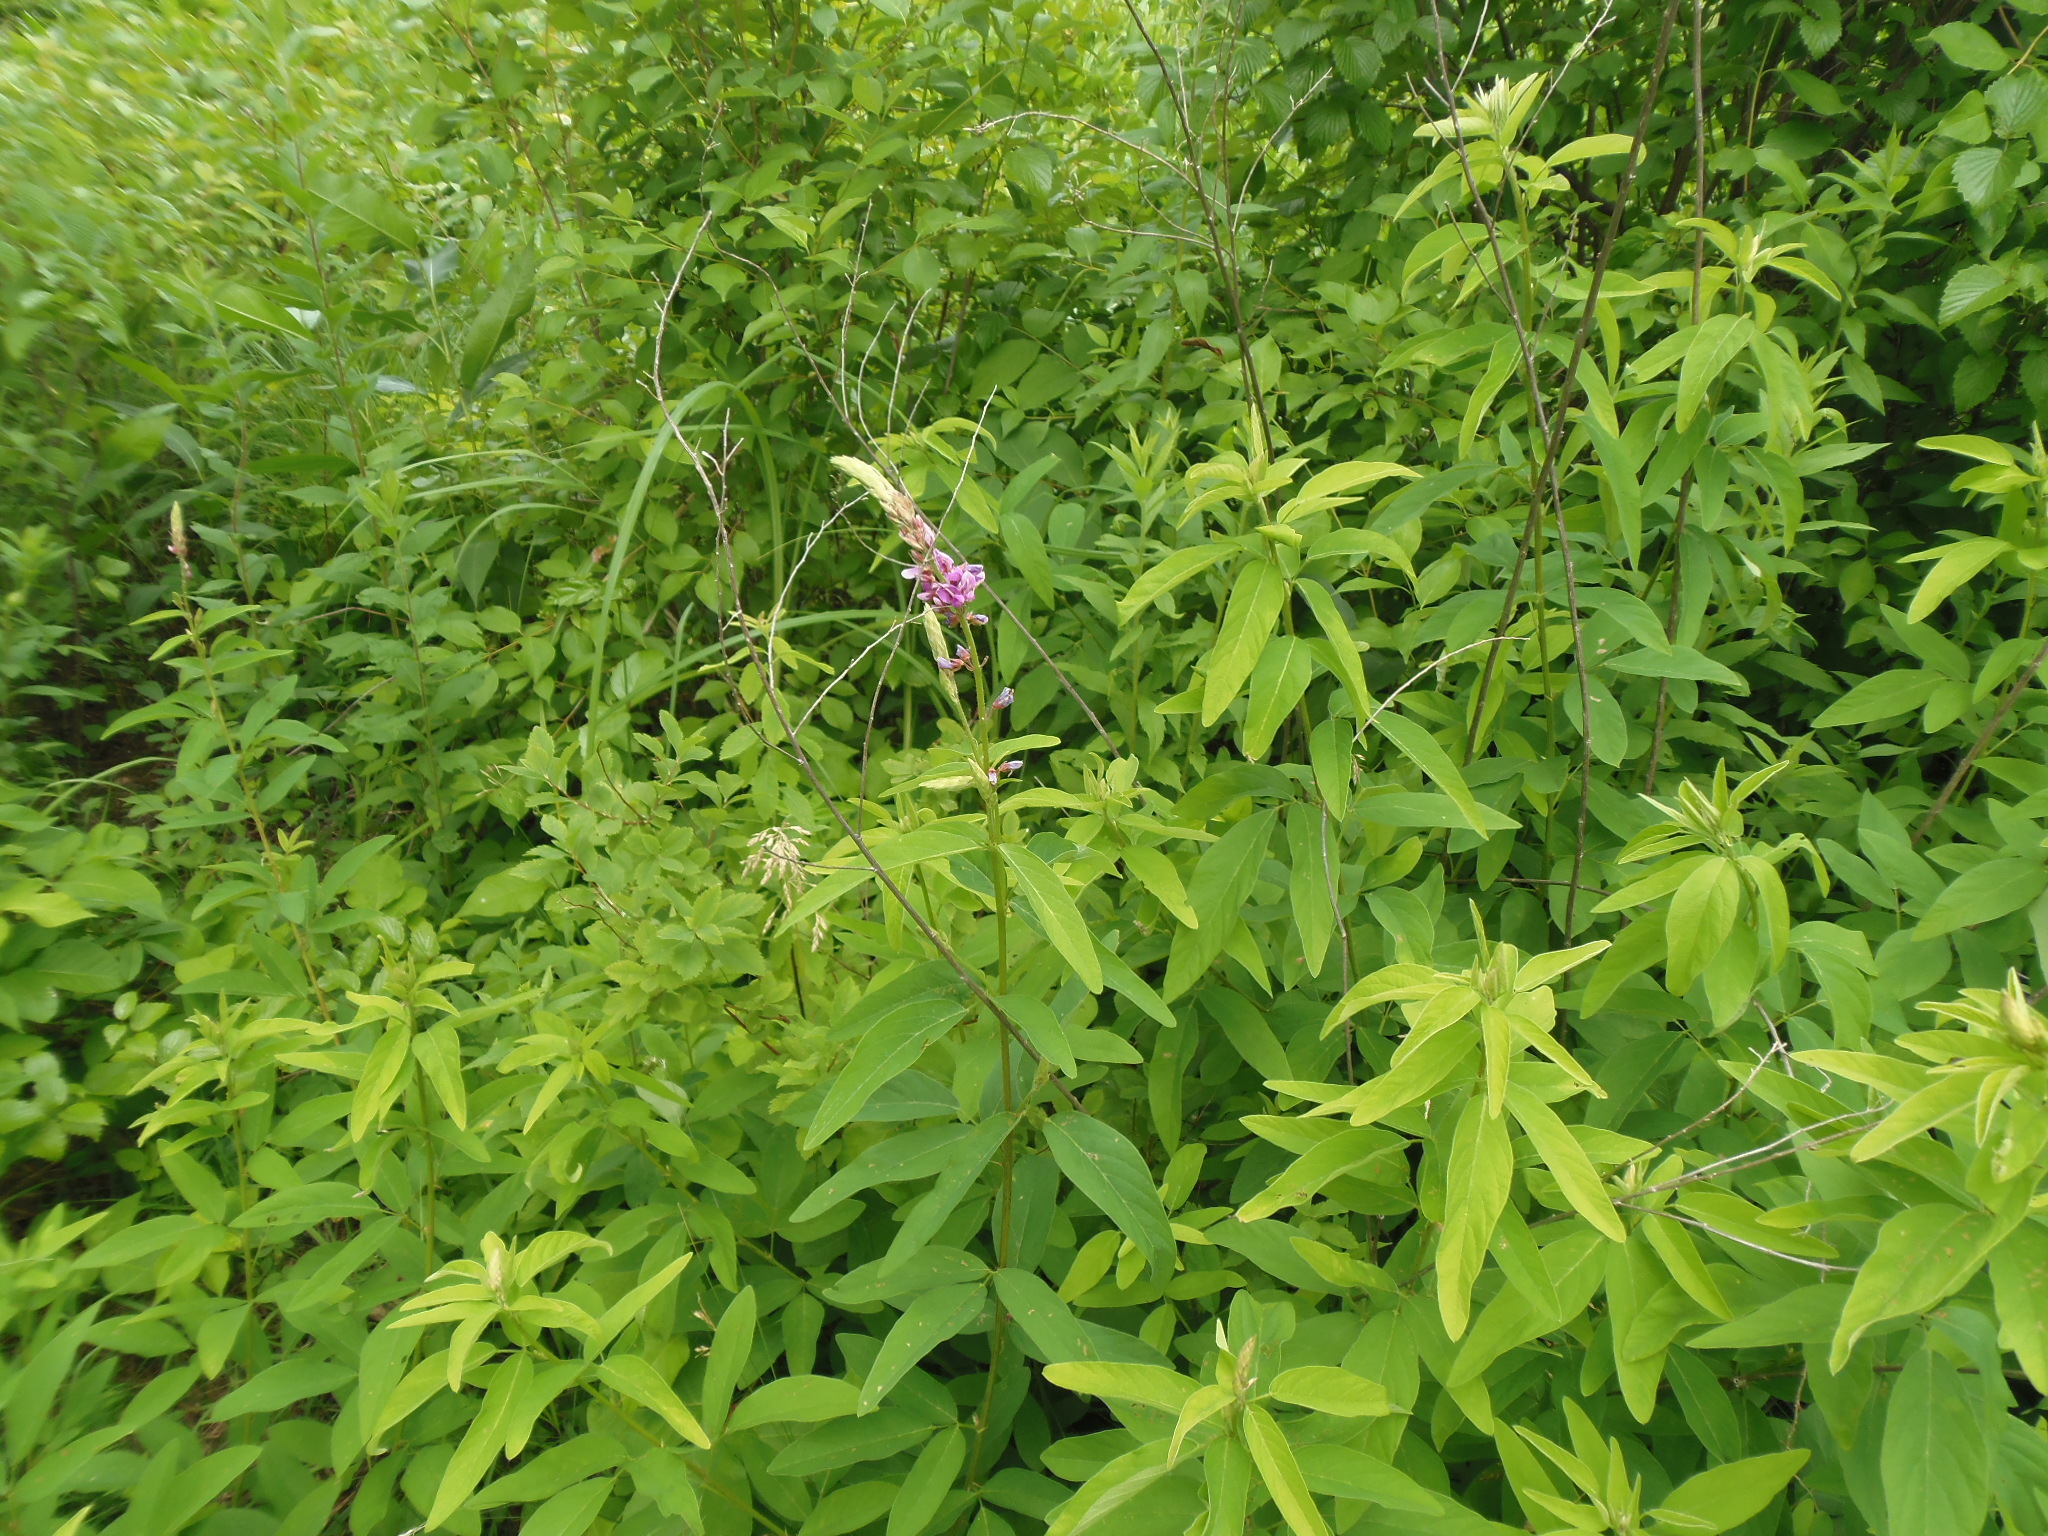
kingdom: Plantae
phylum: Tracheophyta
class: Magnoliopsida
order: Fabales
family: Fabaceae
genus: Desmodium
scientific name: Desmodium canadense
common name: Canada tick-trefoil
